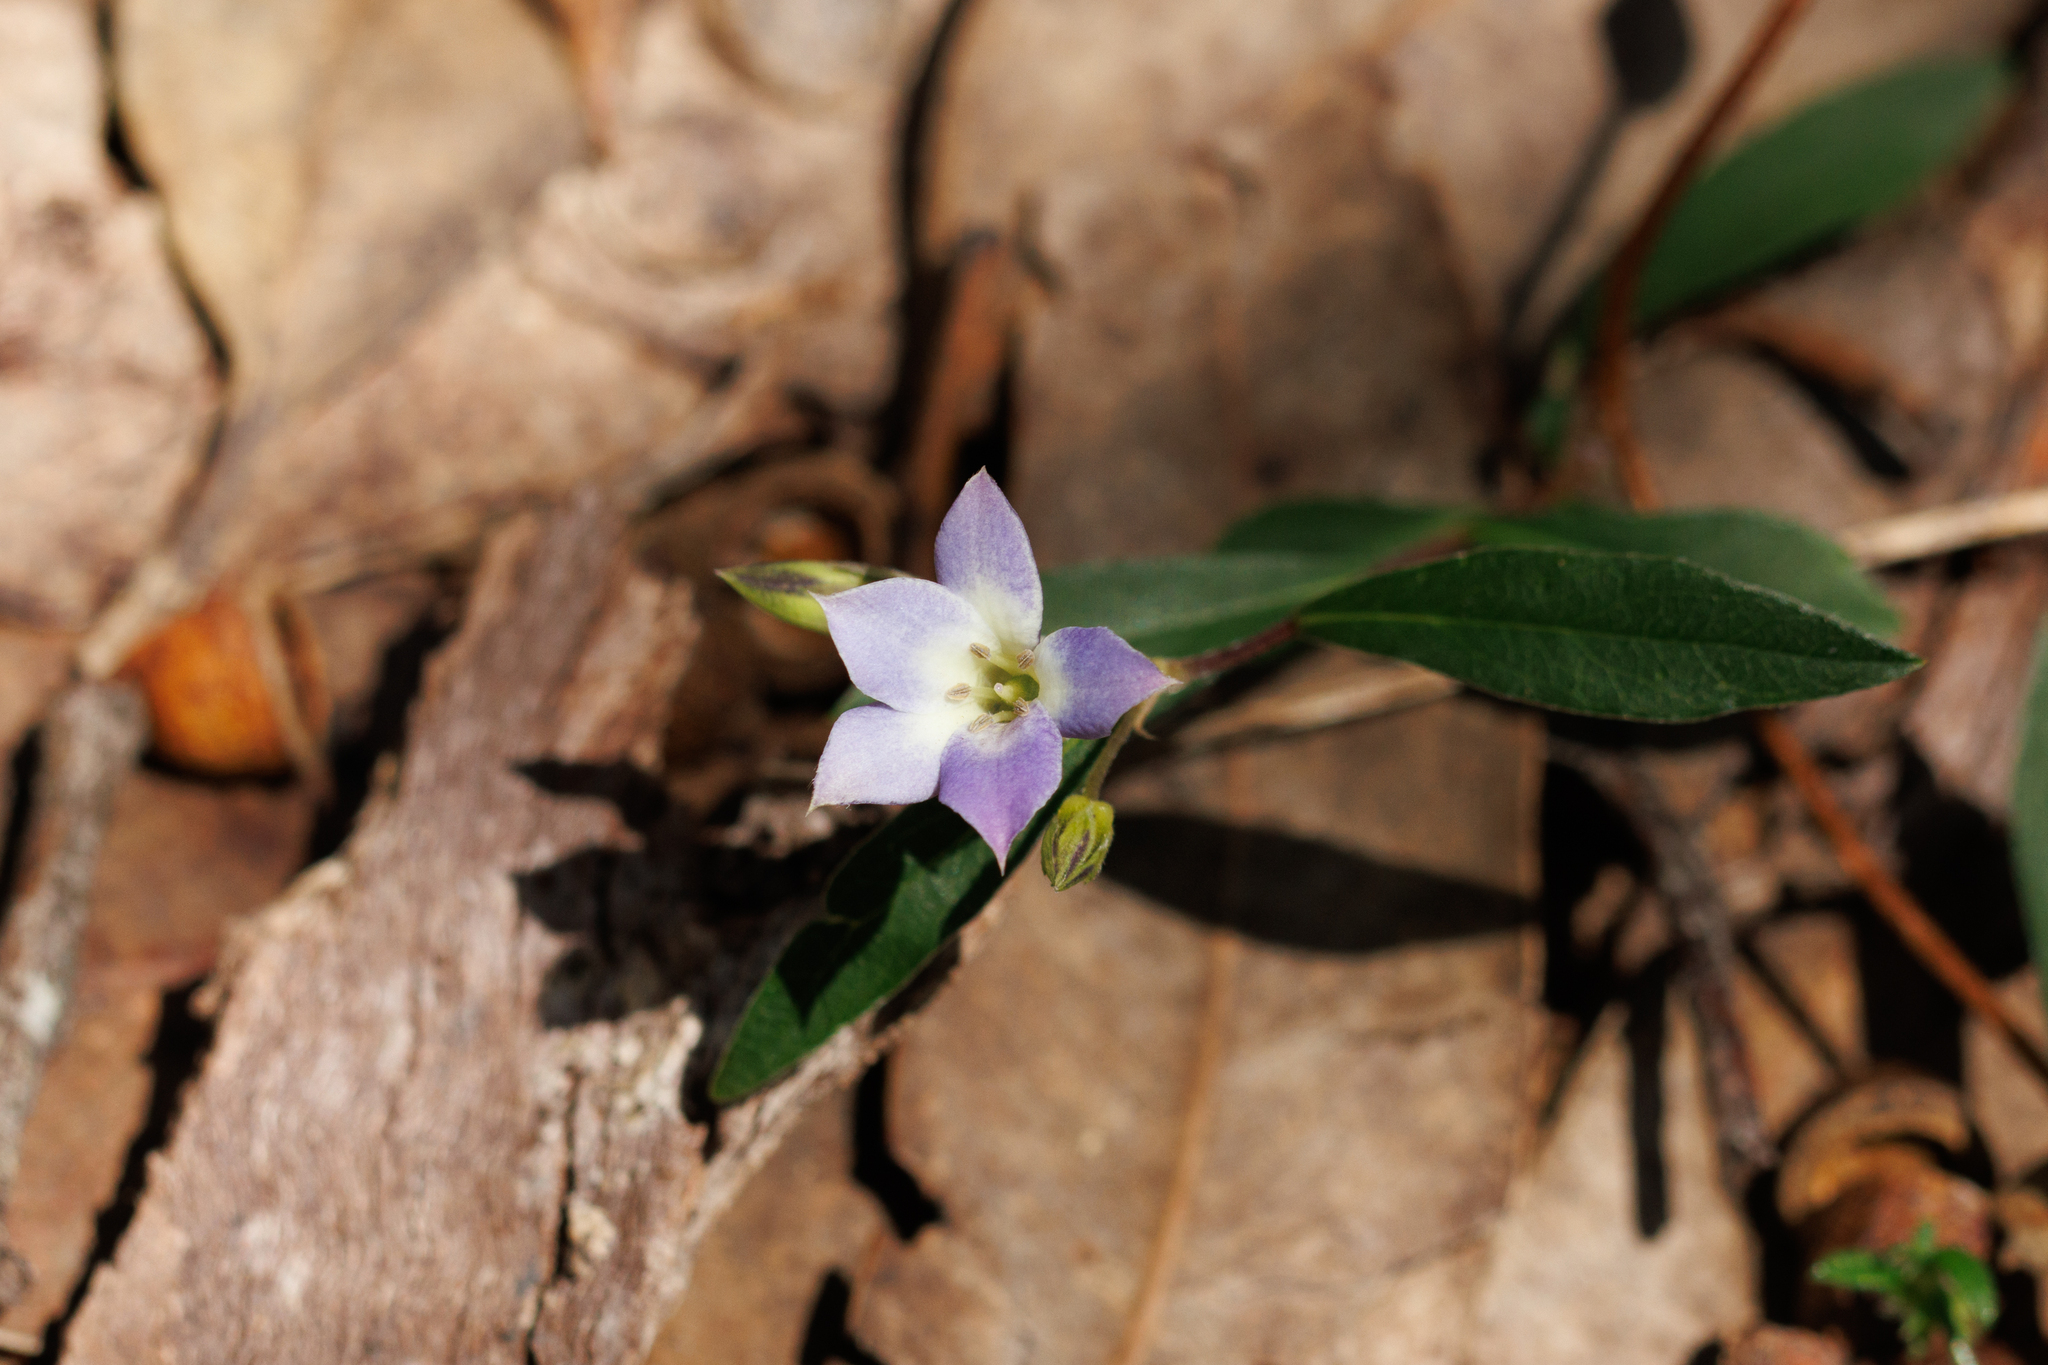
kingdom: Plantae
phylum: Tracheophyta
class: Magnoliopsida
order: Apiales
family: Pittosporaceae
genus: Billardiera
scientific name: Billardiera cymosa
